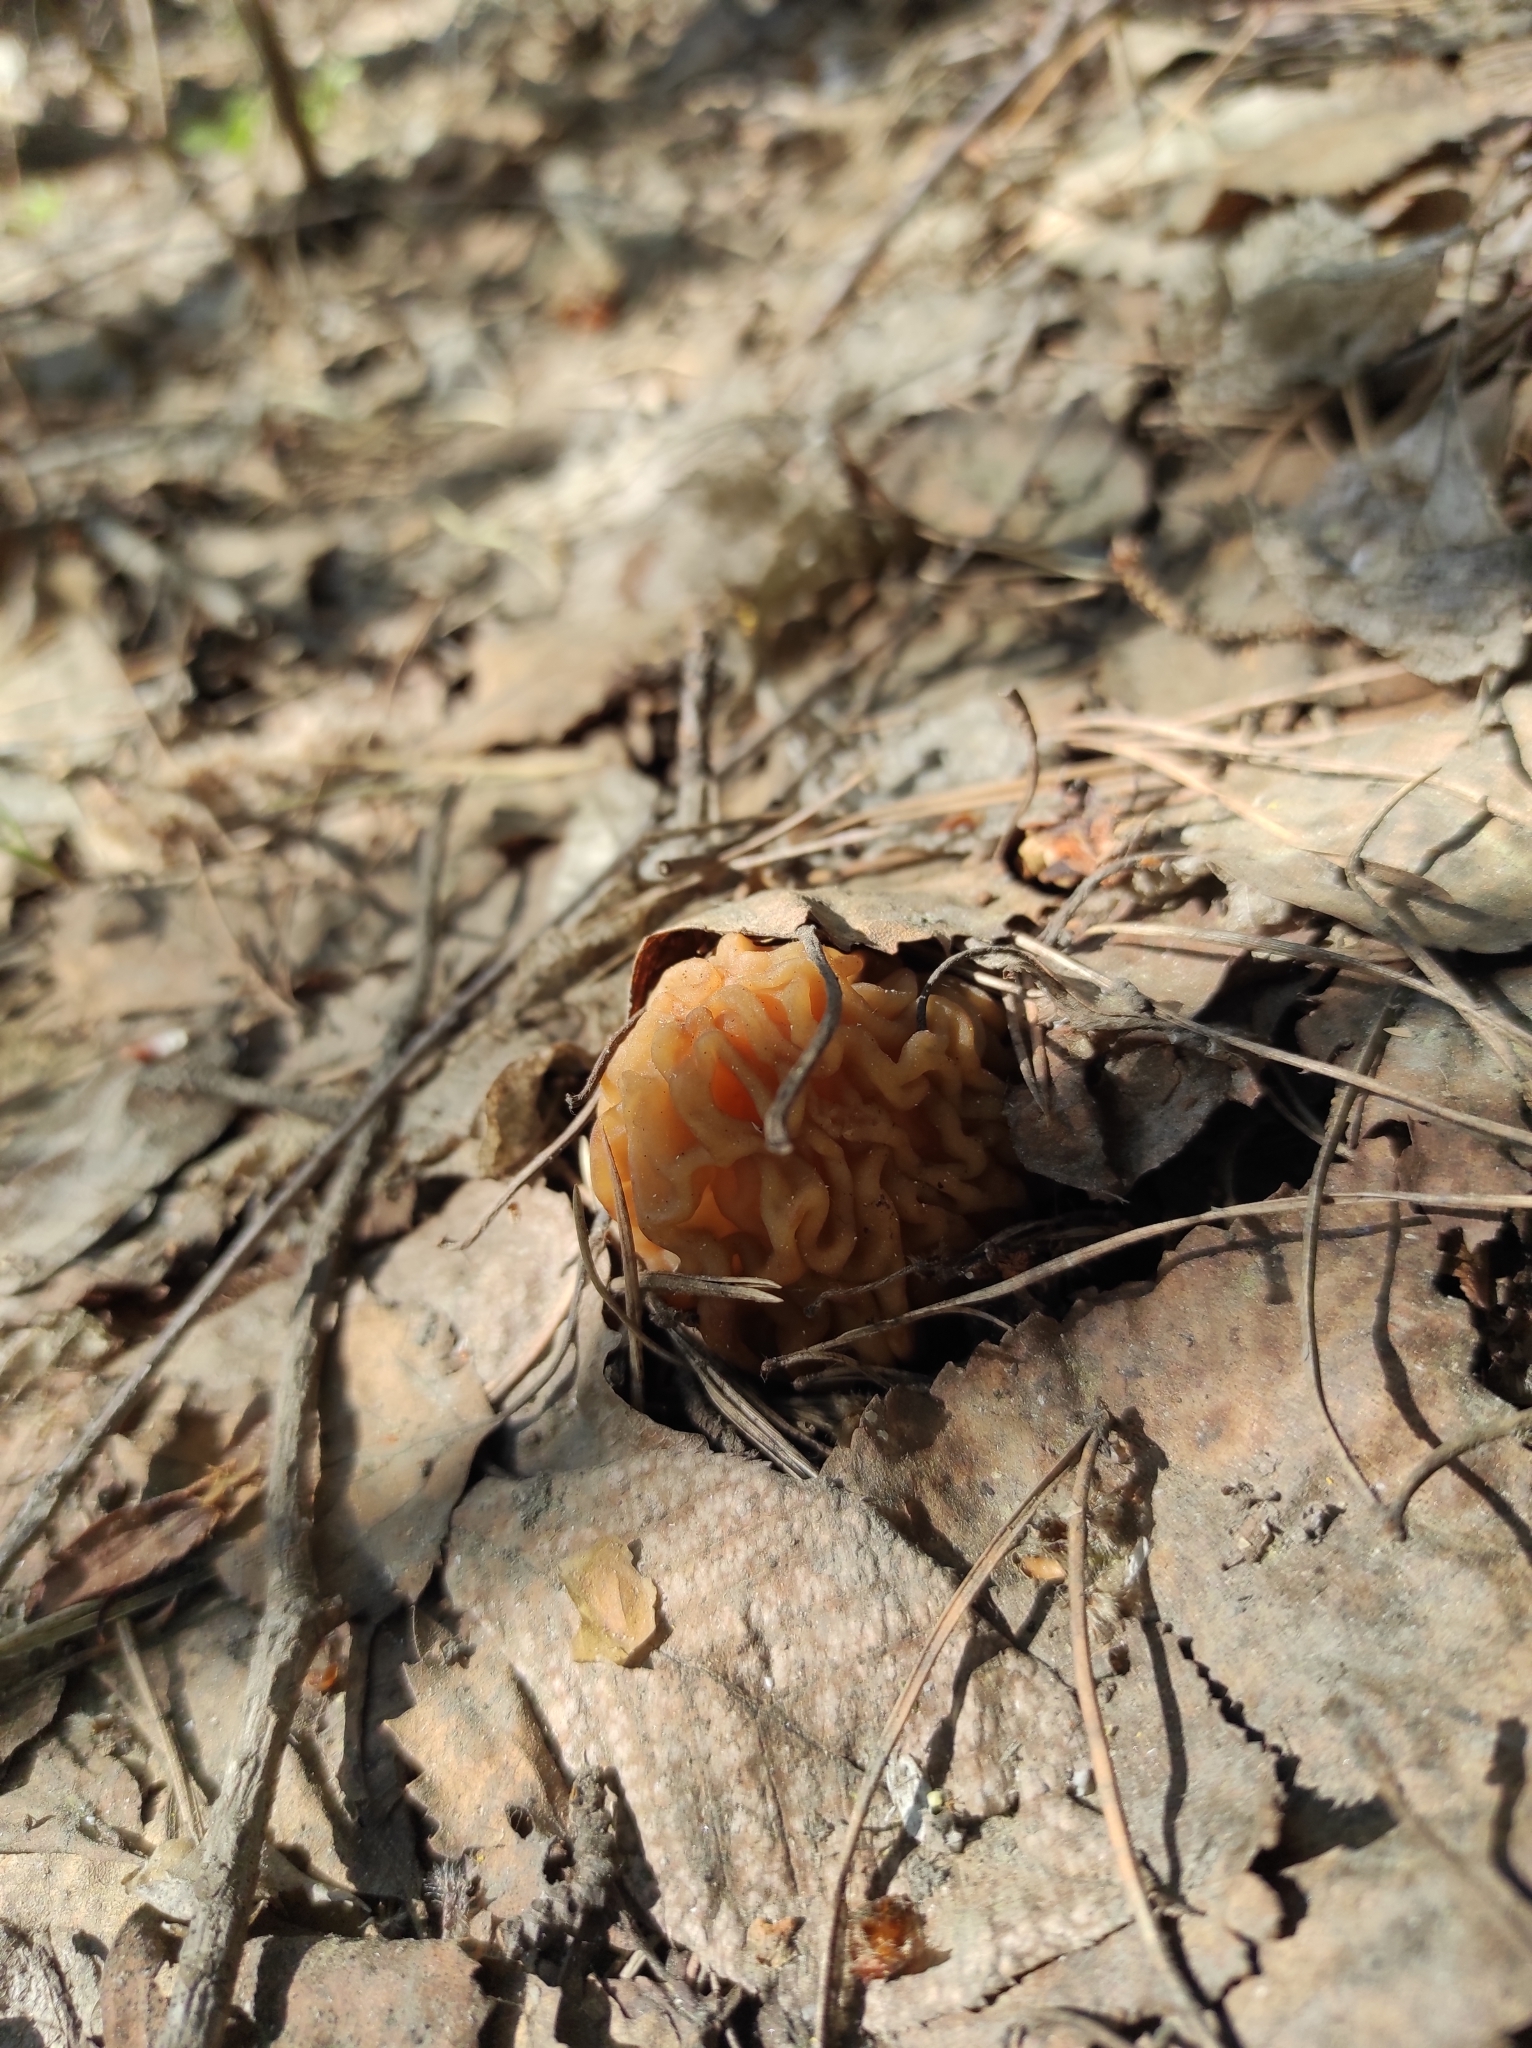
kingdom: Fungi
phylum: Ascomycota
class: Pezizomycetes
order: Pezizales
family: Morchellaceae
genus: Verpa
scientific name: Verpa bohemica
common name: Wrinkled thimble morel
